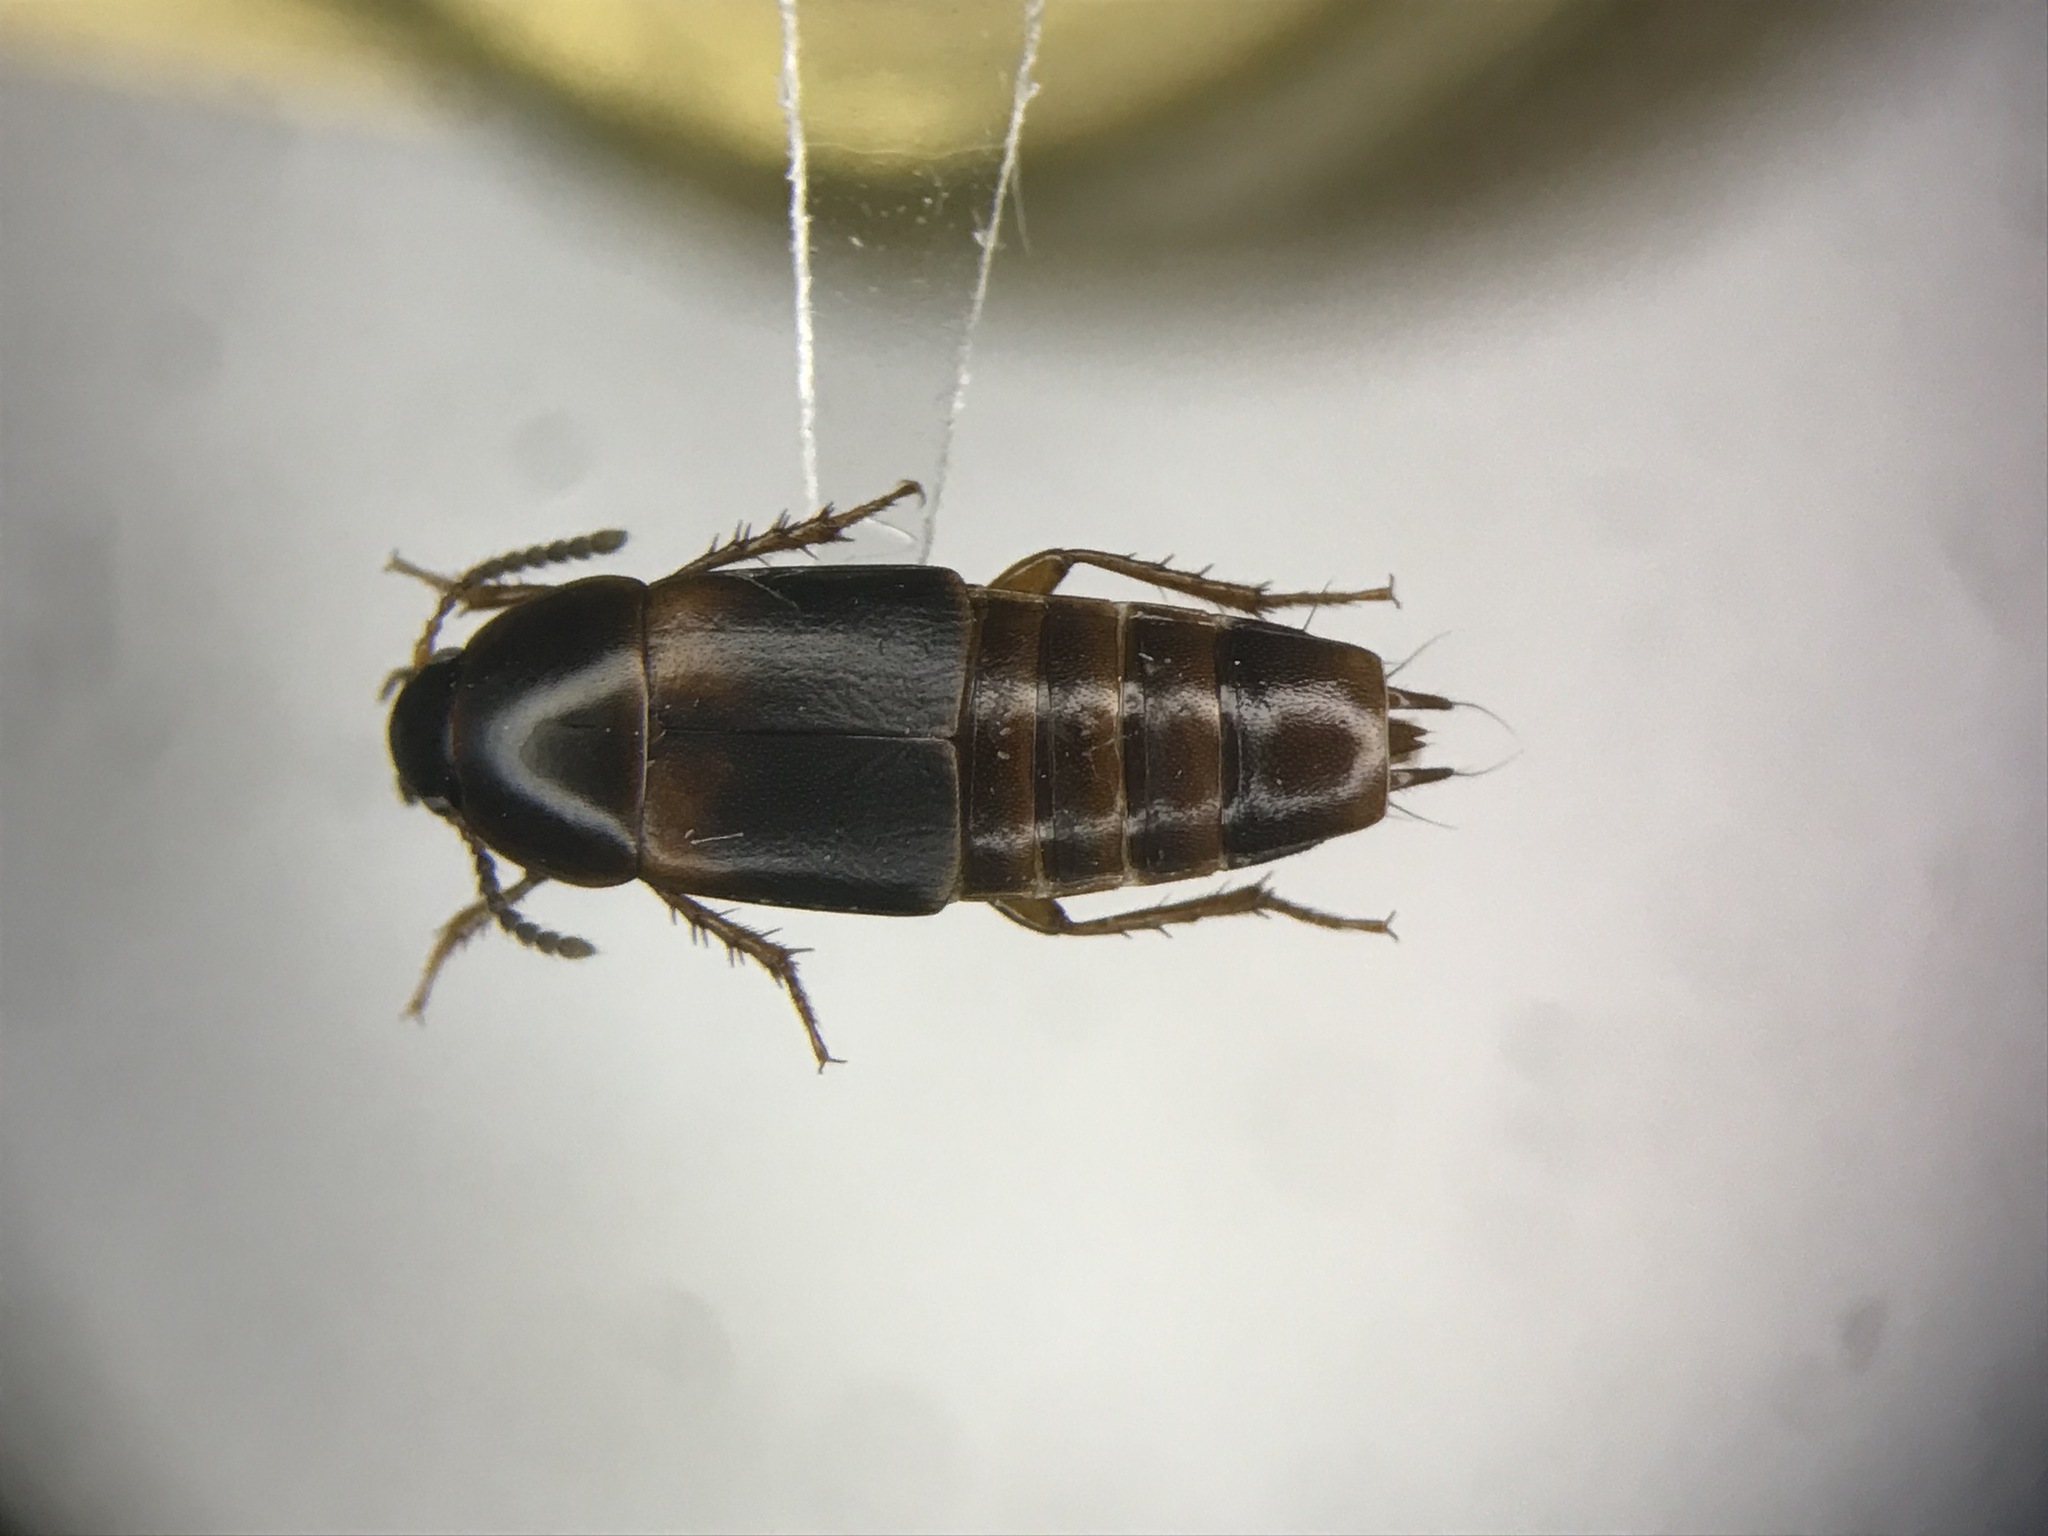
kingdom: Animalia
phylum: Arthropoda
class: Insecta
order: Coleoptera
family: Staphylinidae
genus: Tachinus
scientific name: Tachinus memnonius
